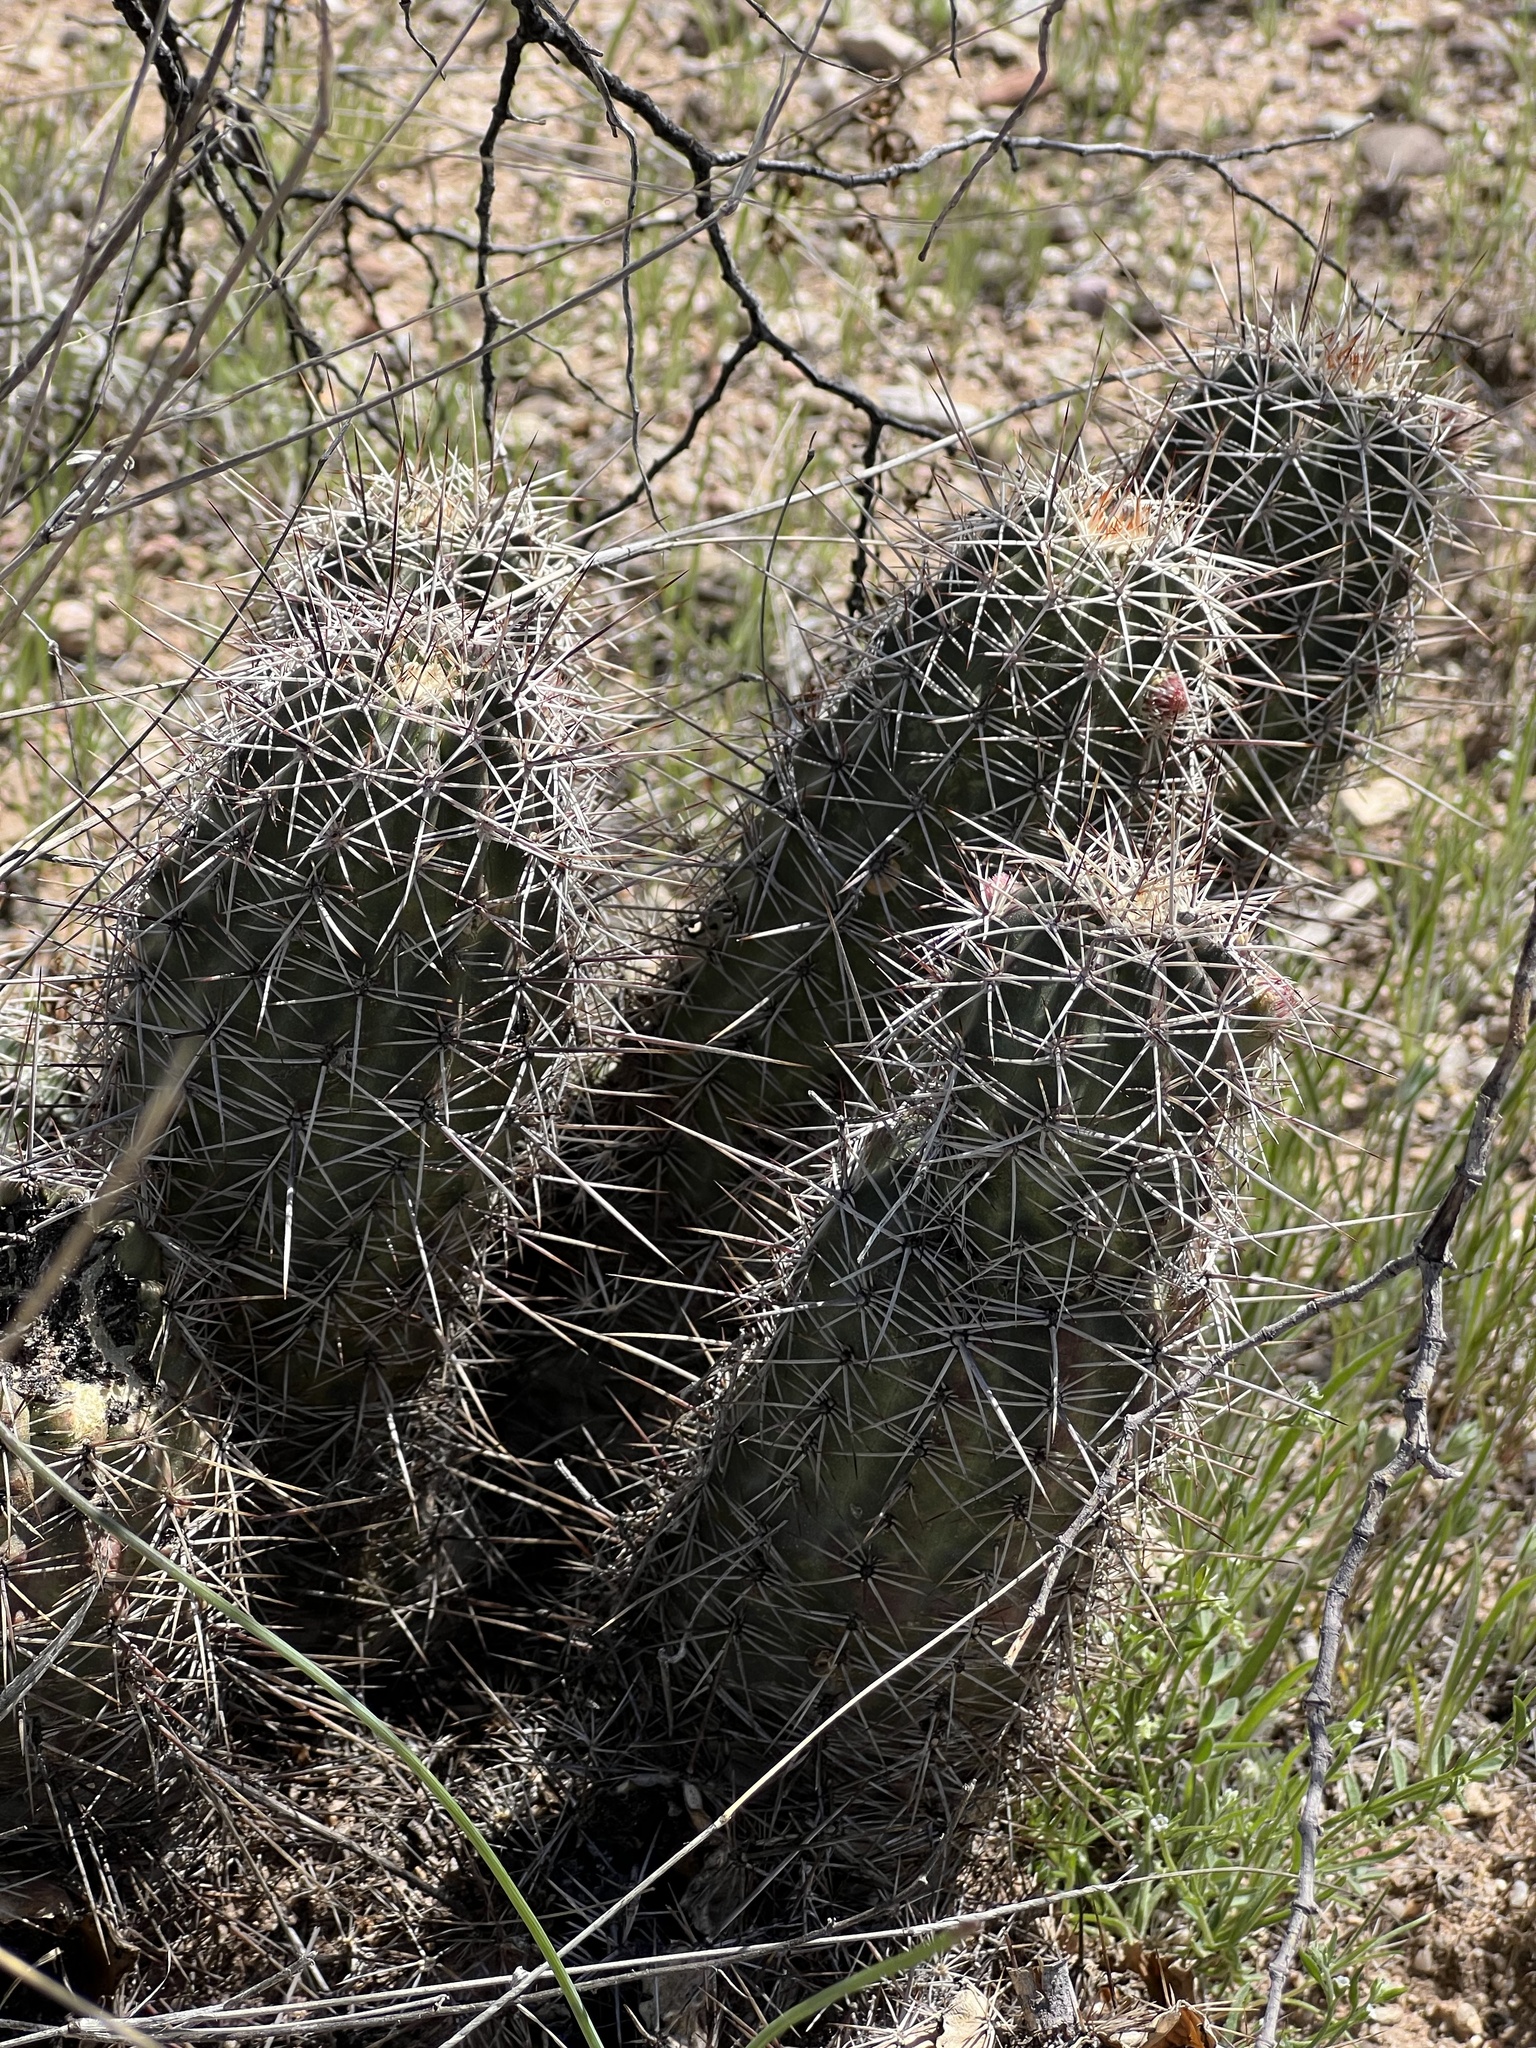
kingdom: Plantae
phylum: Tracheophyta
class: Magnoliopsida
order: Caryophyllales
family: Cactaceae
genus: Echinocereus
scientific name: Echinocereus fasciculatus
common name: Bundle hedgehog
